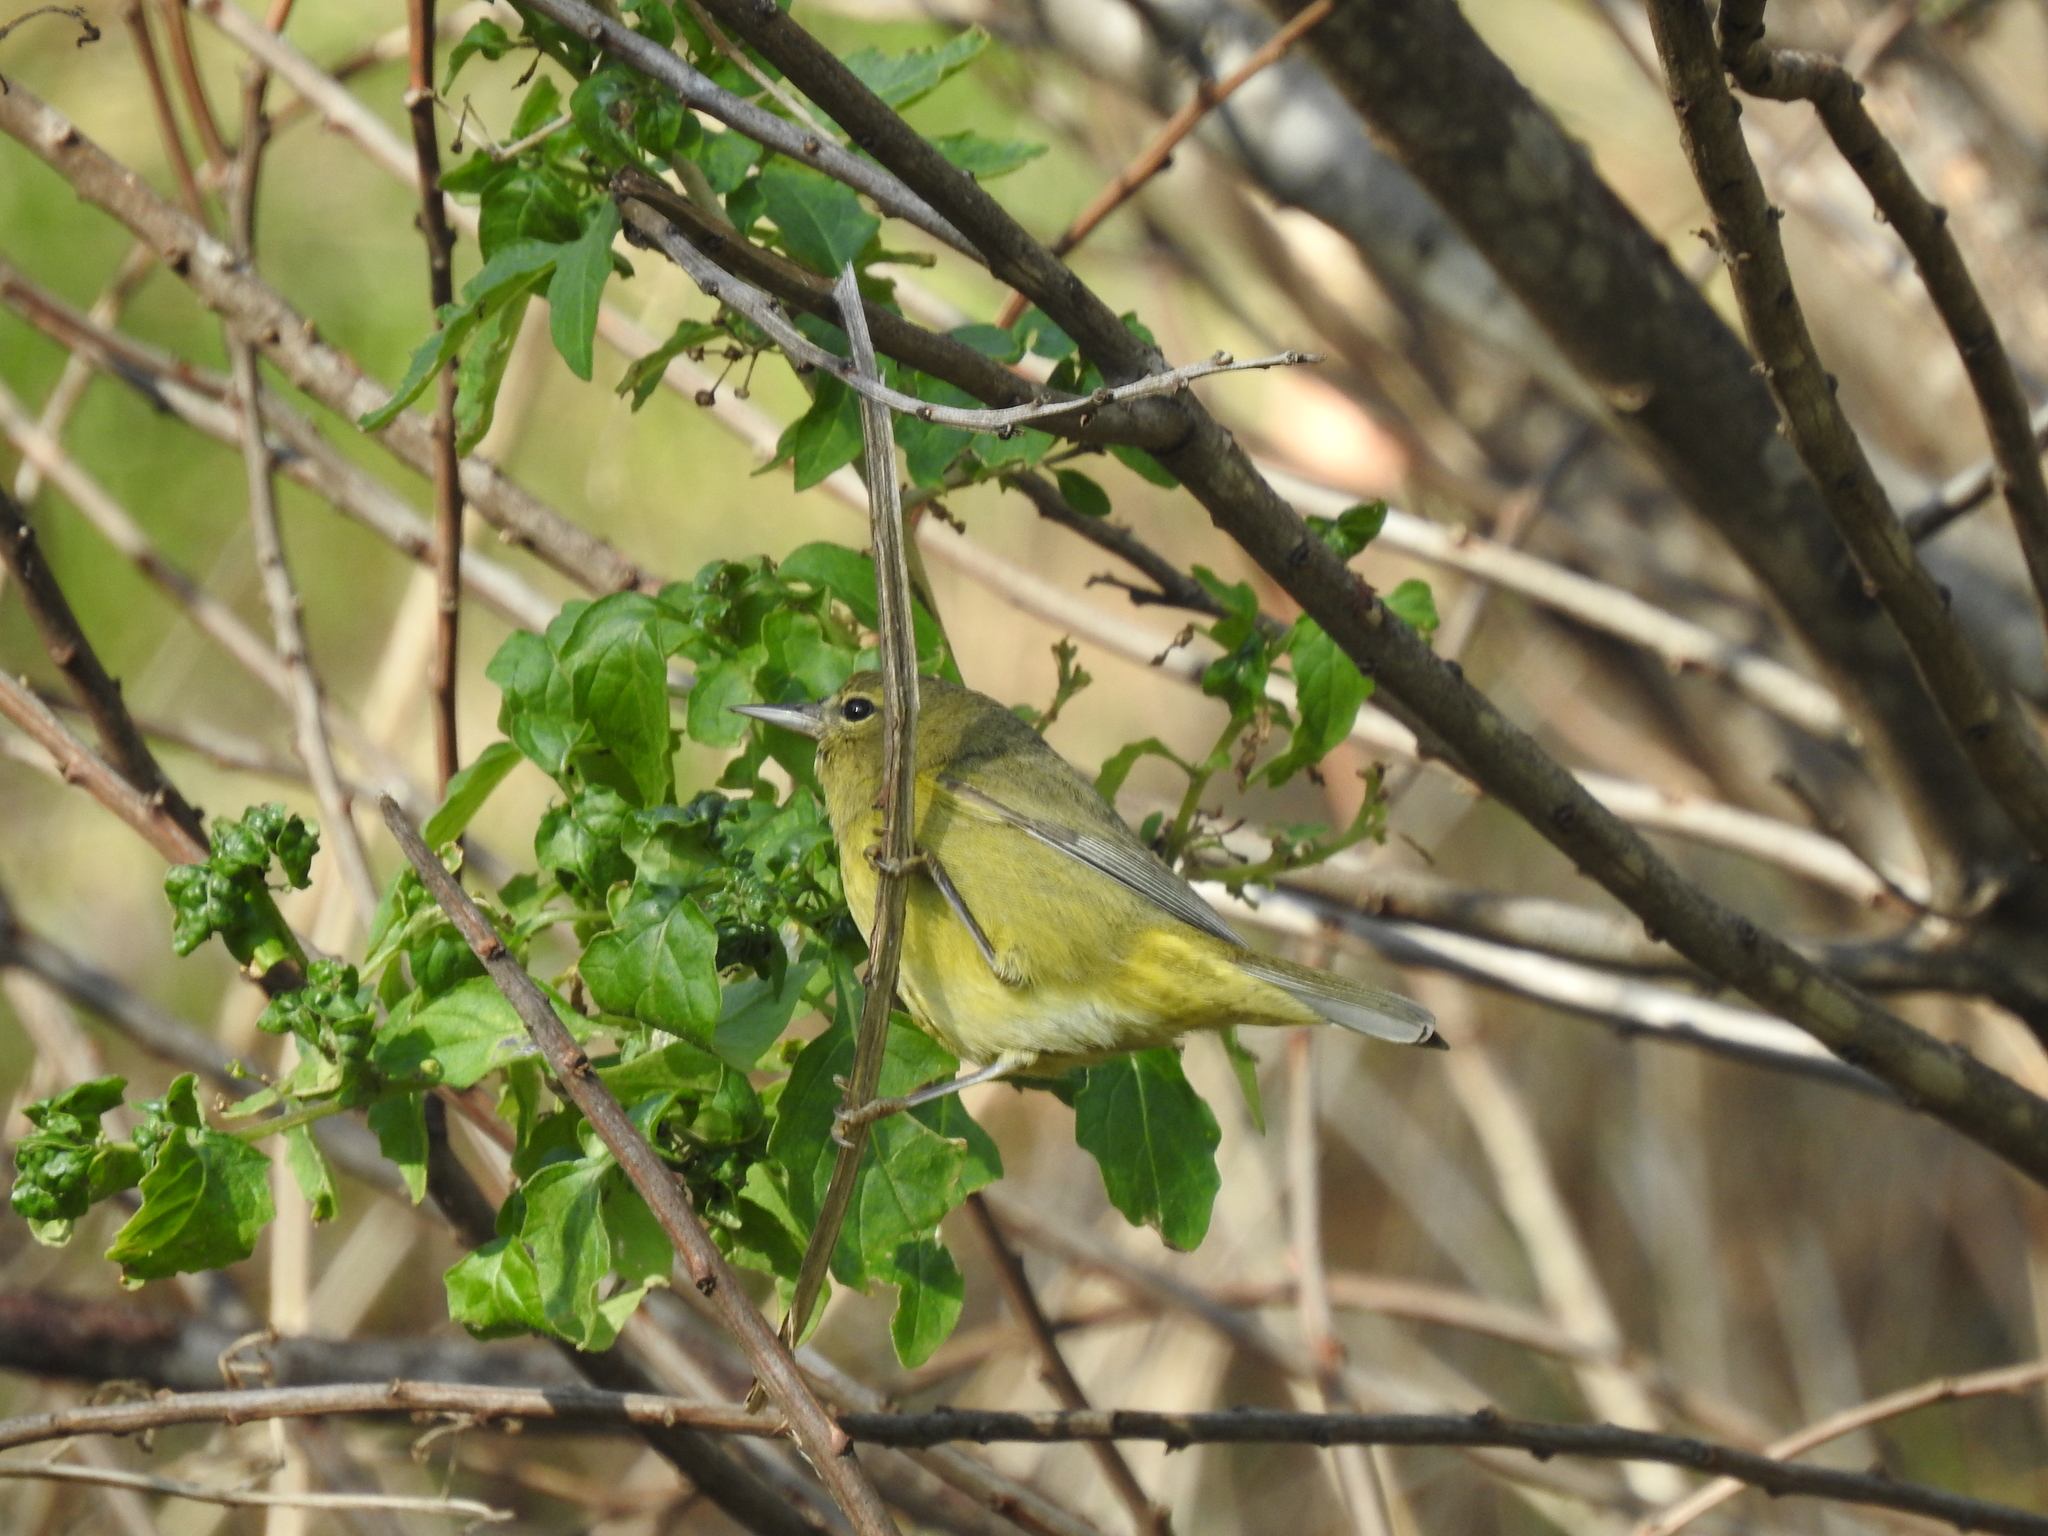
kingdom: Animalia
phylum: Chordata
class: Aves
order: Passeriformes
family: Parulidae
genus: Leiothlypis
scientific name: Leiothlypis celata
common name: Orange-crowned warbler
